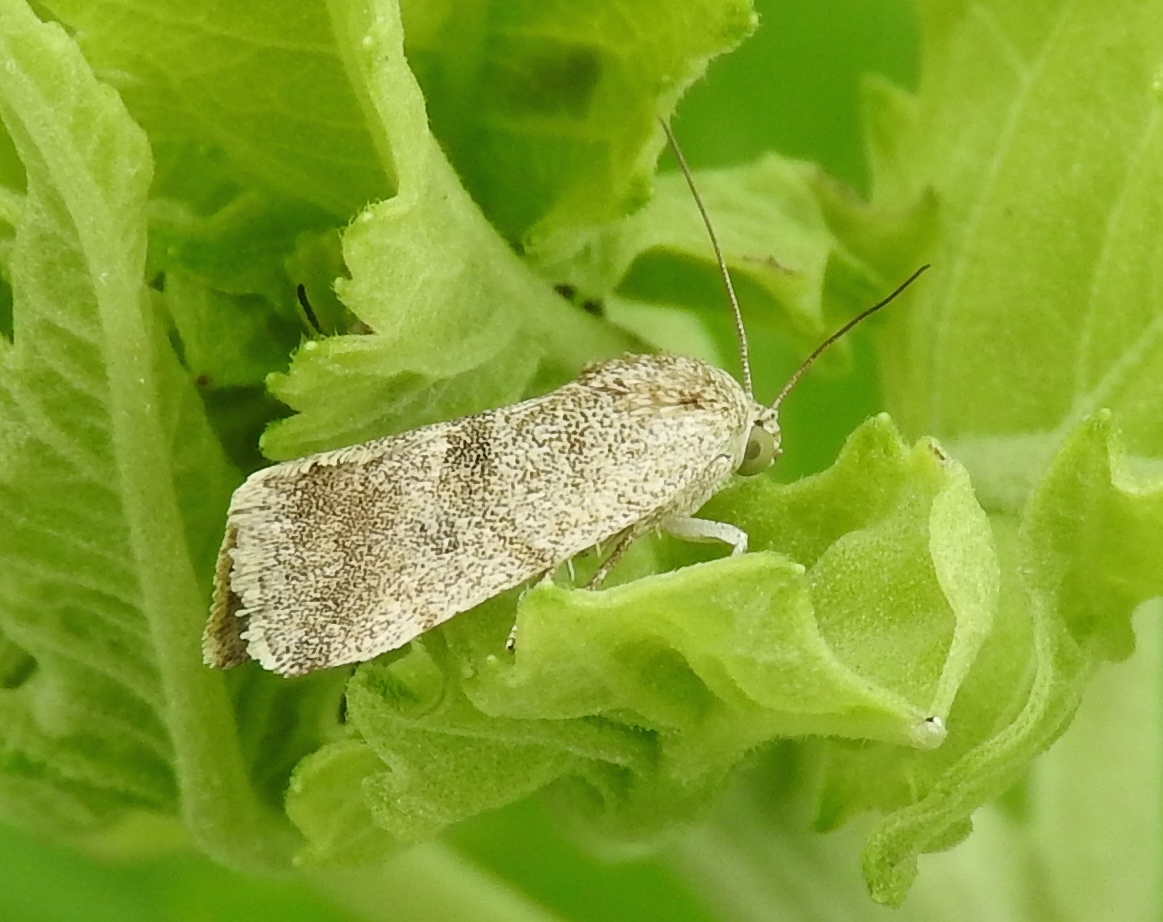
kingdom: Animalia
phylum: Arthropoda
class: Insecta
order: Lepidoptera
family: Noctuidae
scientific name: Noctuidae
